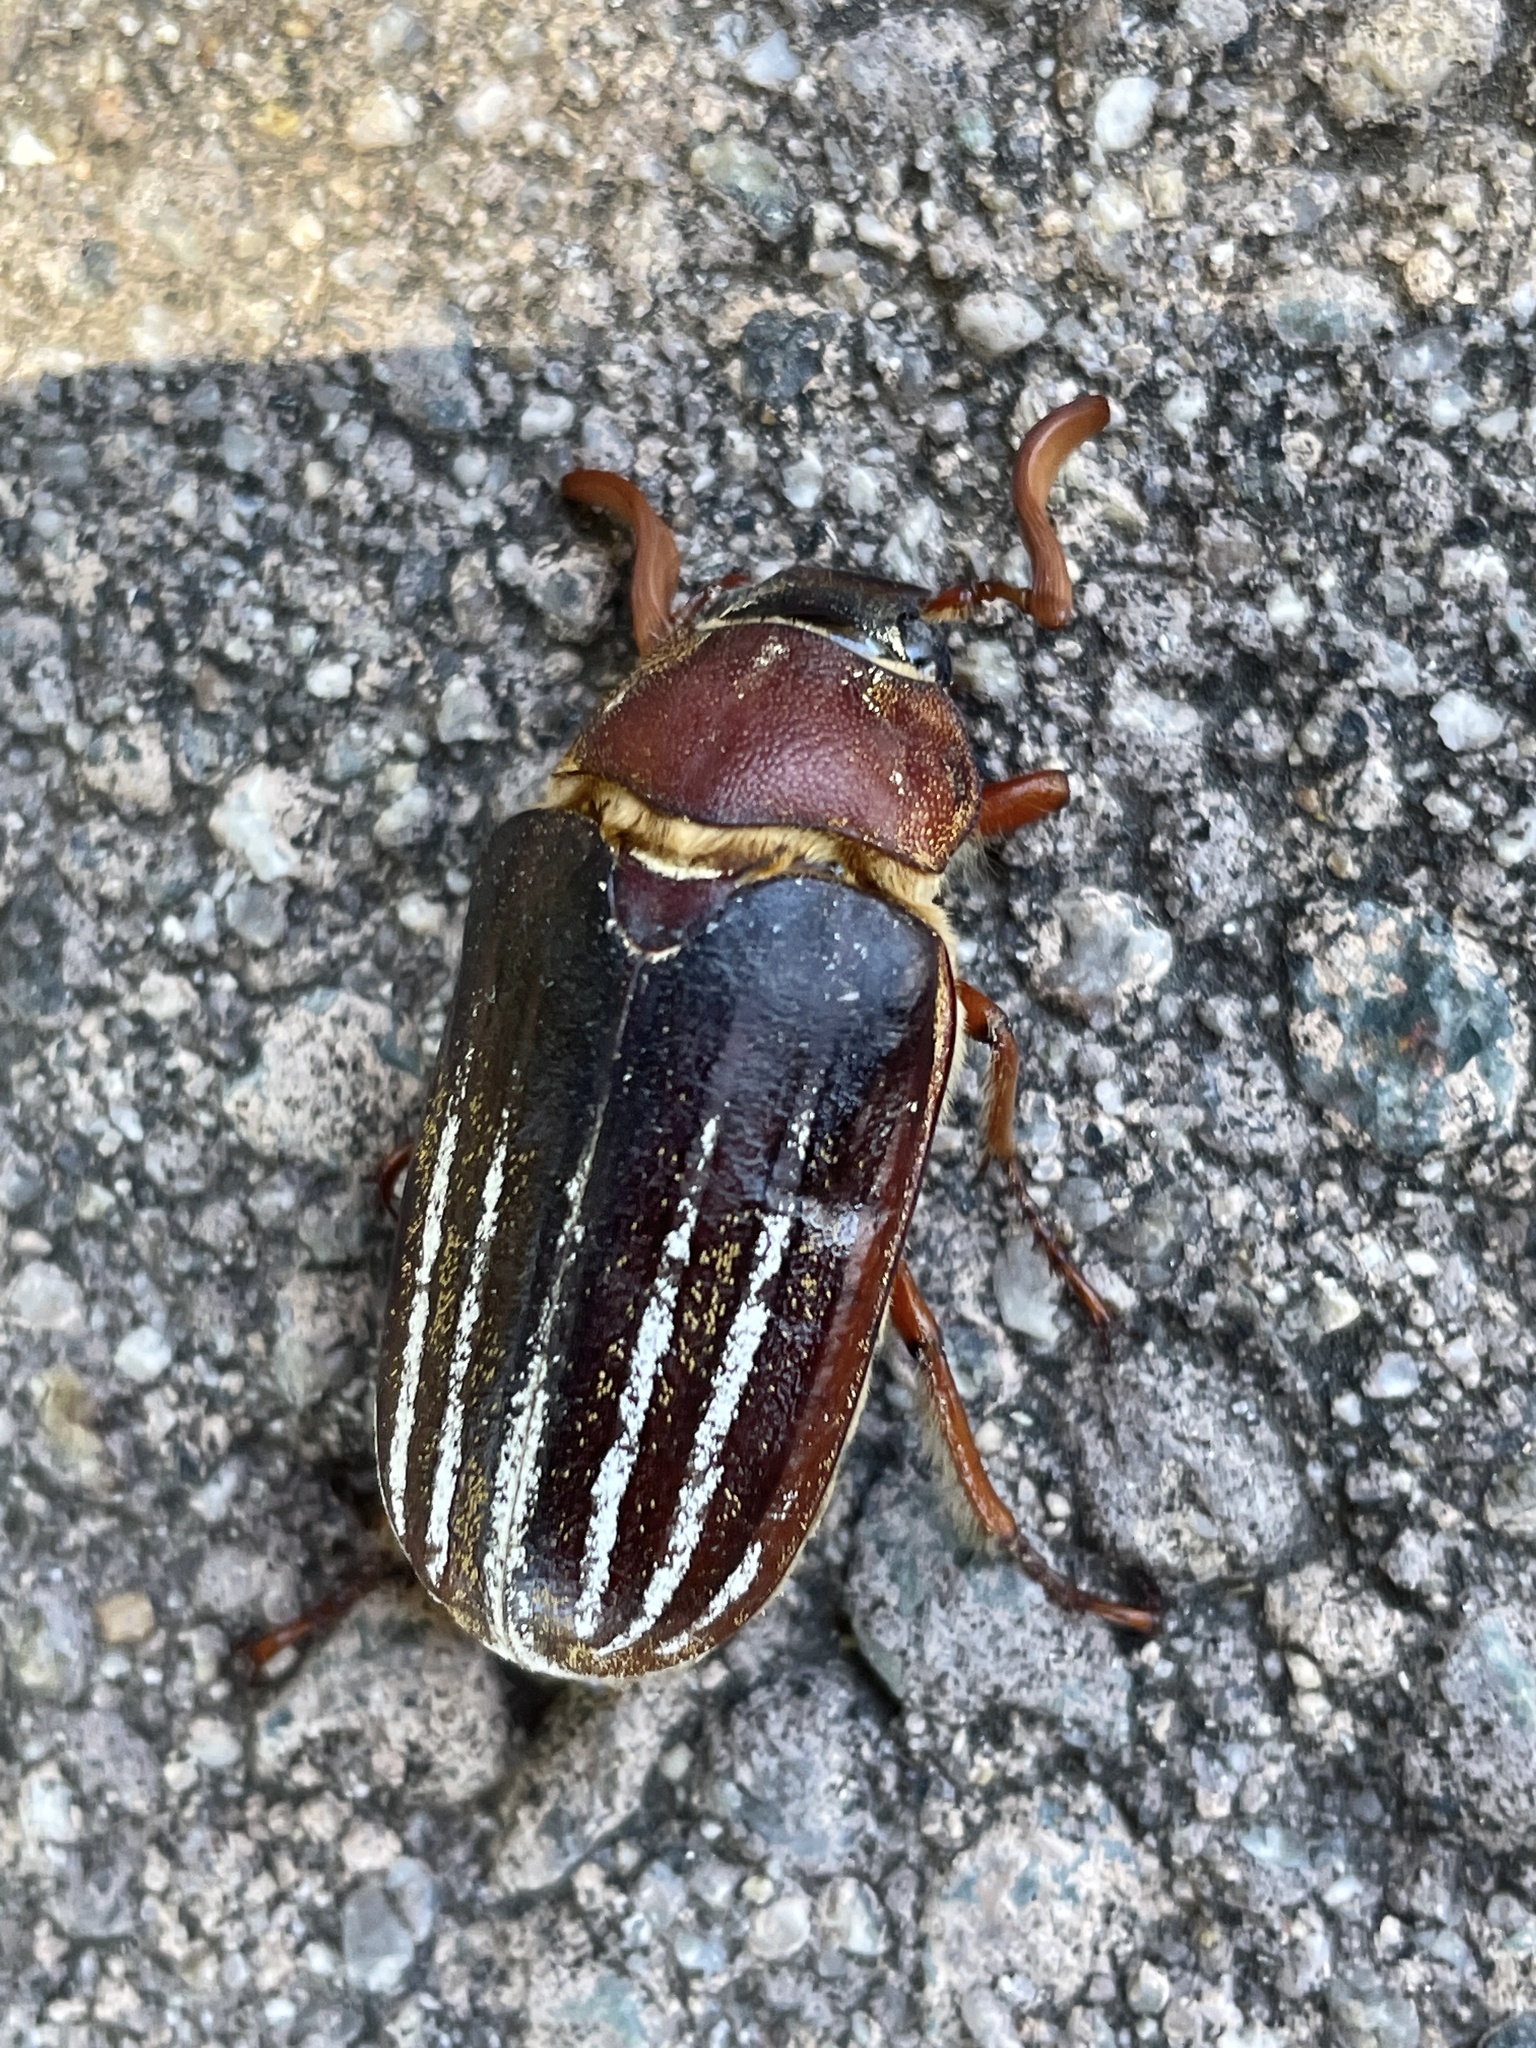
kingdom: Animalia
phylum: Arthropoda
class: Insecta
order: Coleoptera
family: Scarabaeidae
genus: Polyphylla
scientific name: Polyphylla decemlineata
